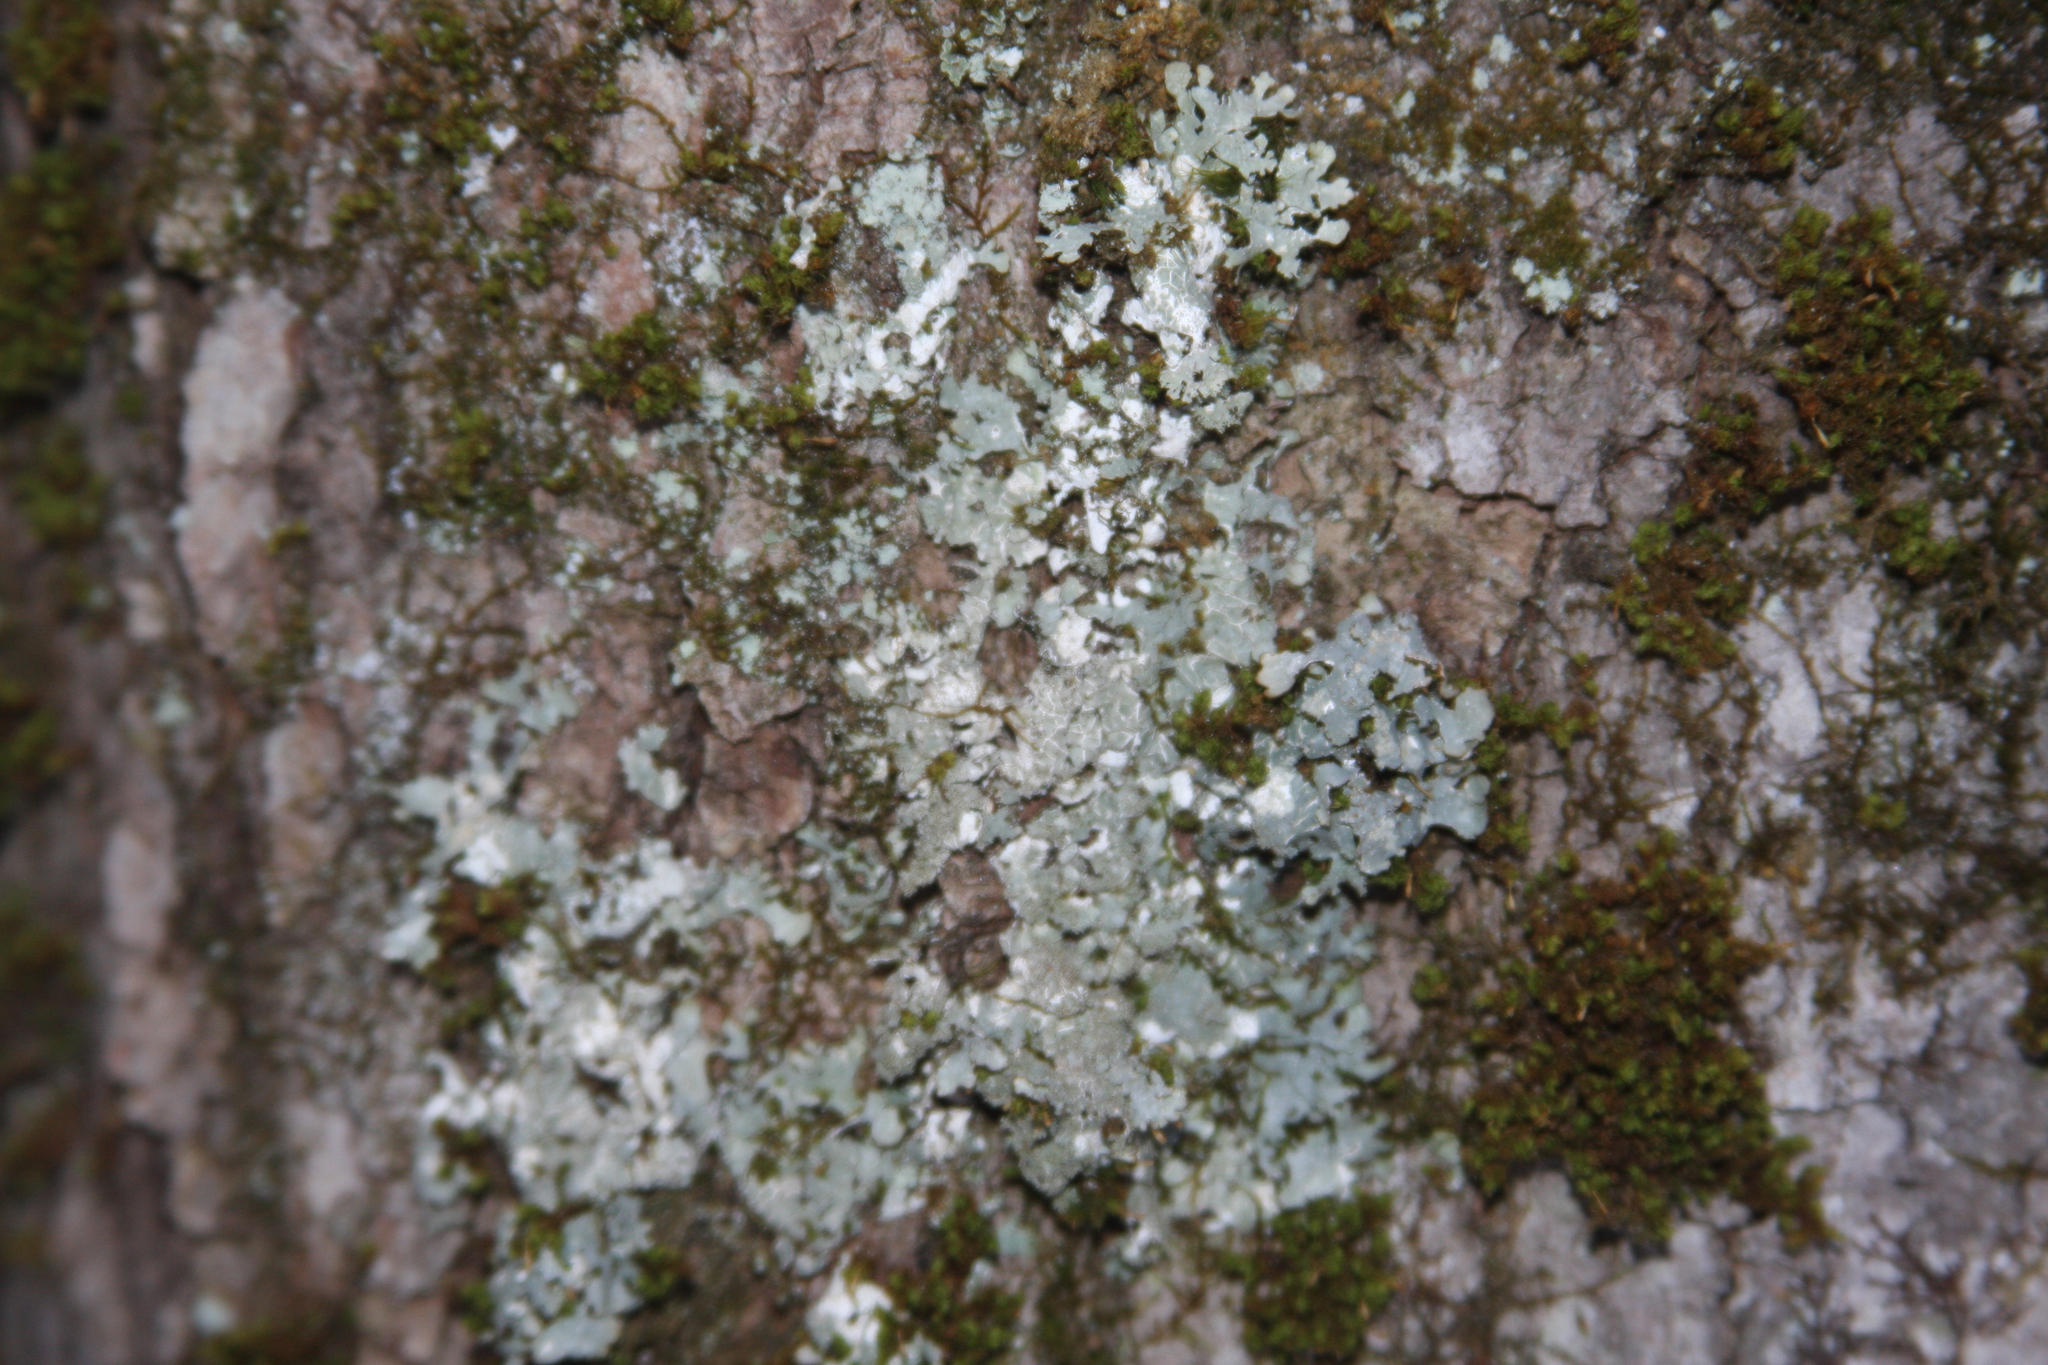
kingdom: Plantae
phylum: Bryophyta
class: Bryopsida
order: Orthotrichales
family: Orthotrichaceae
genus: Ulota
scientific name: Ulota crispa
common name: Crisped pincushion moss
